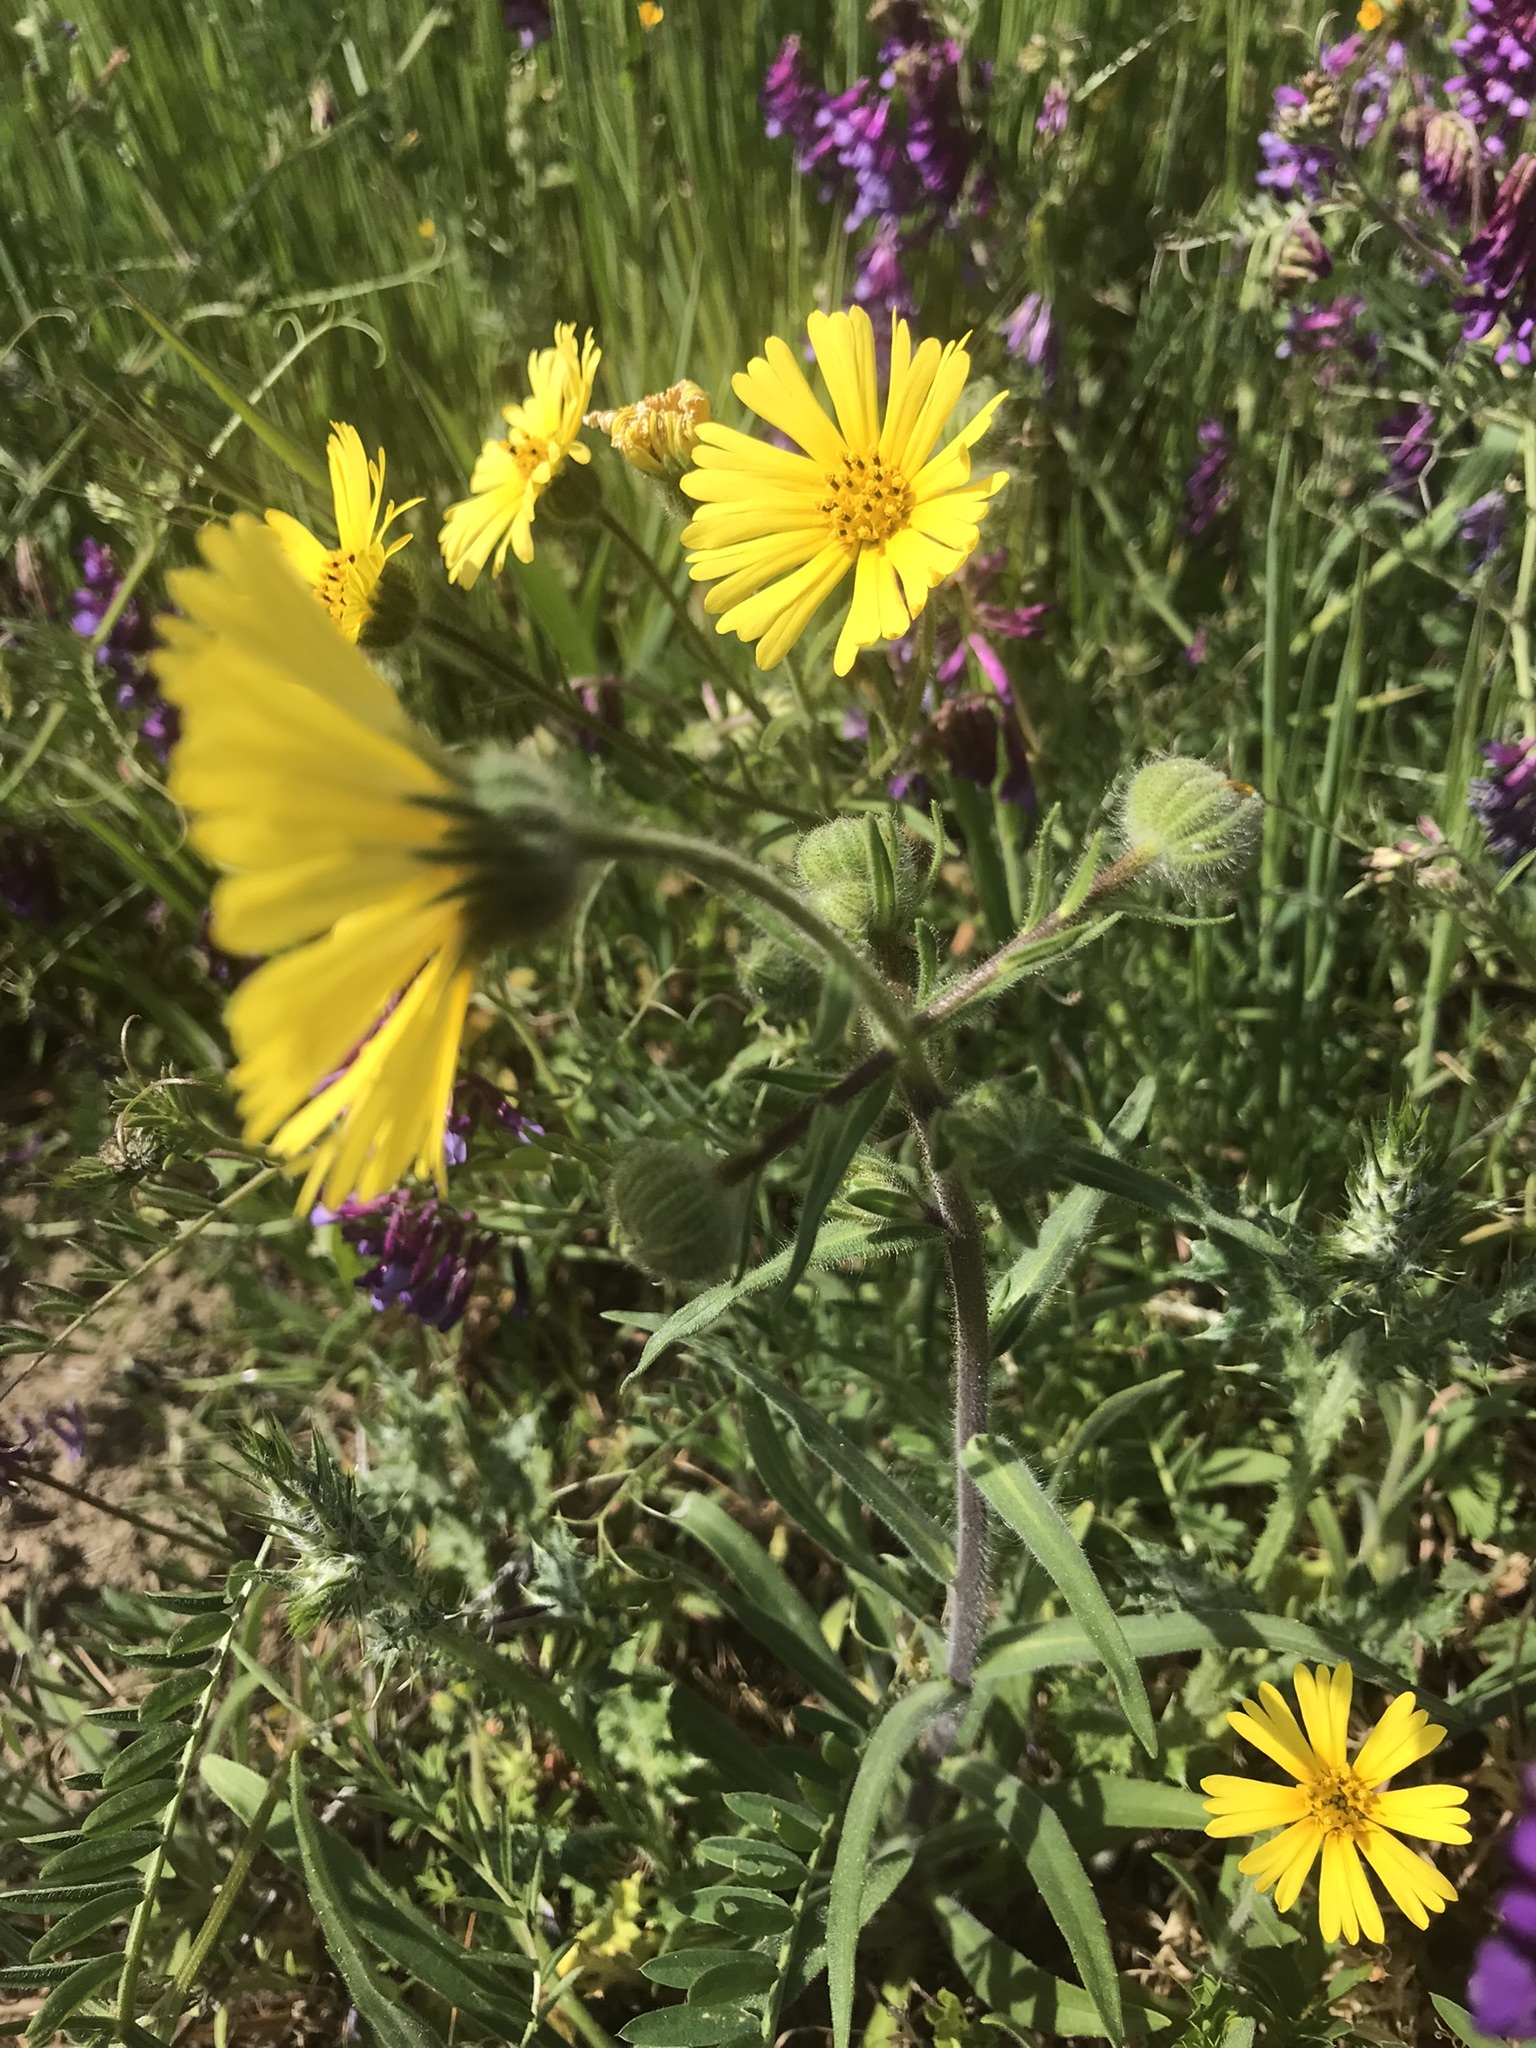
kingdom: Plantae
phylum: Tracheophyta
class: Magnoliopsida
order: Asterales
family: Asteraceae
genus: Madia
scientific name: Madia elegans
